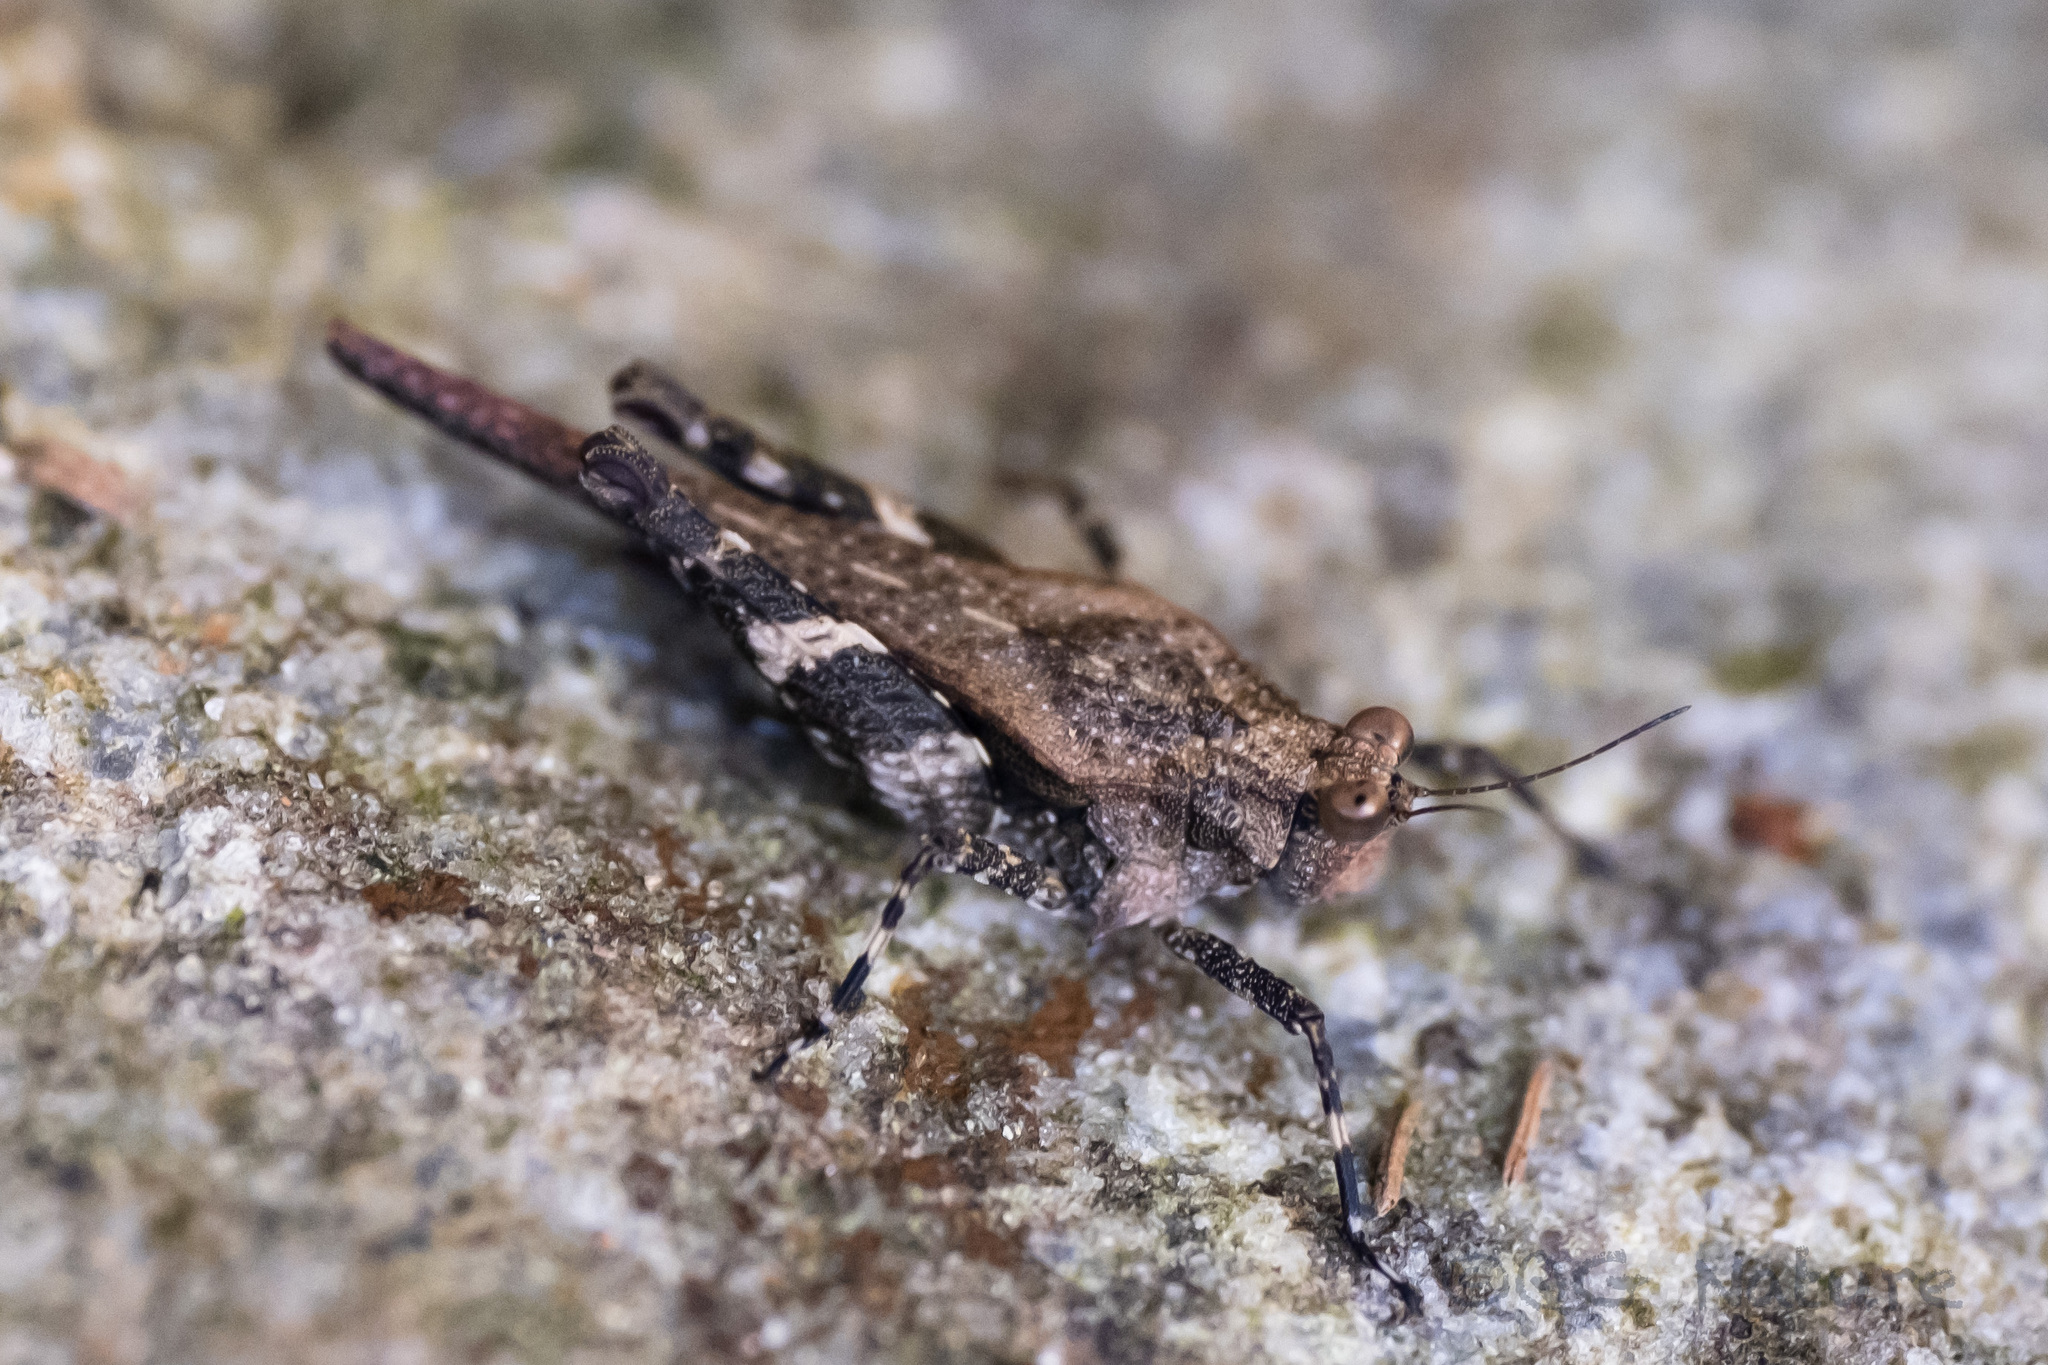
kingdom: Animalia
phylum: Arthropoda
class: Insecta
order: Orthoptera
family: Tetrigidae
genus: Criotettix
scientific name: Criotettix bispinosus
